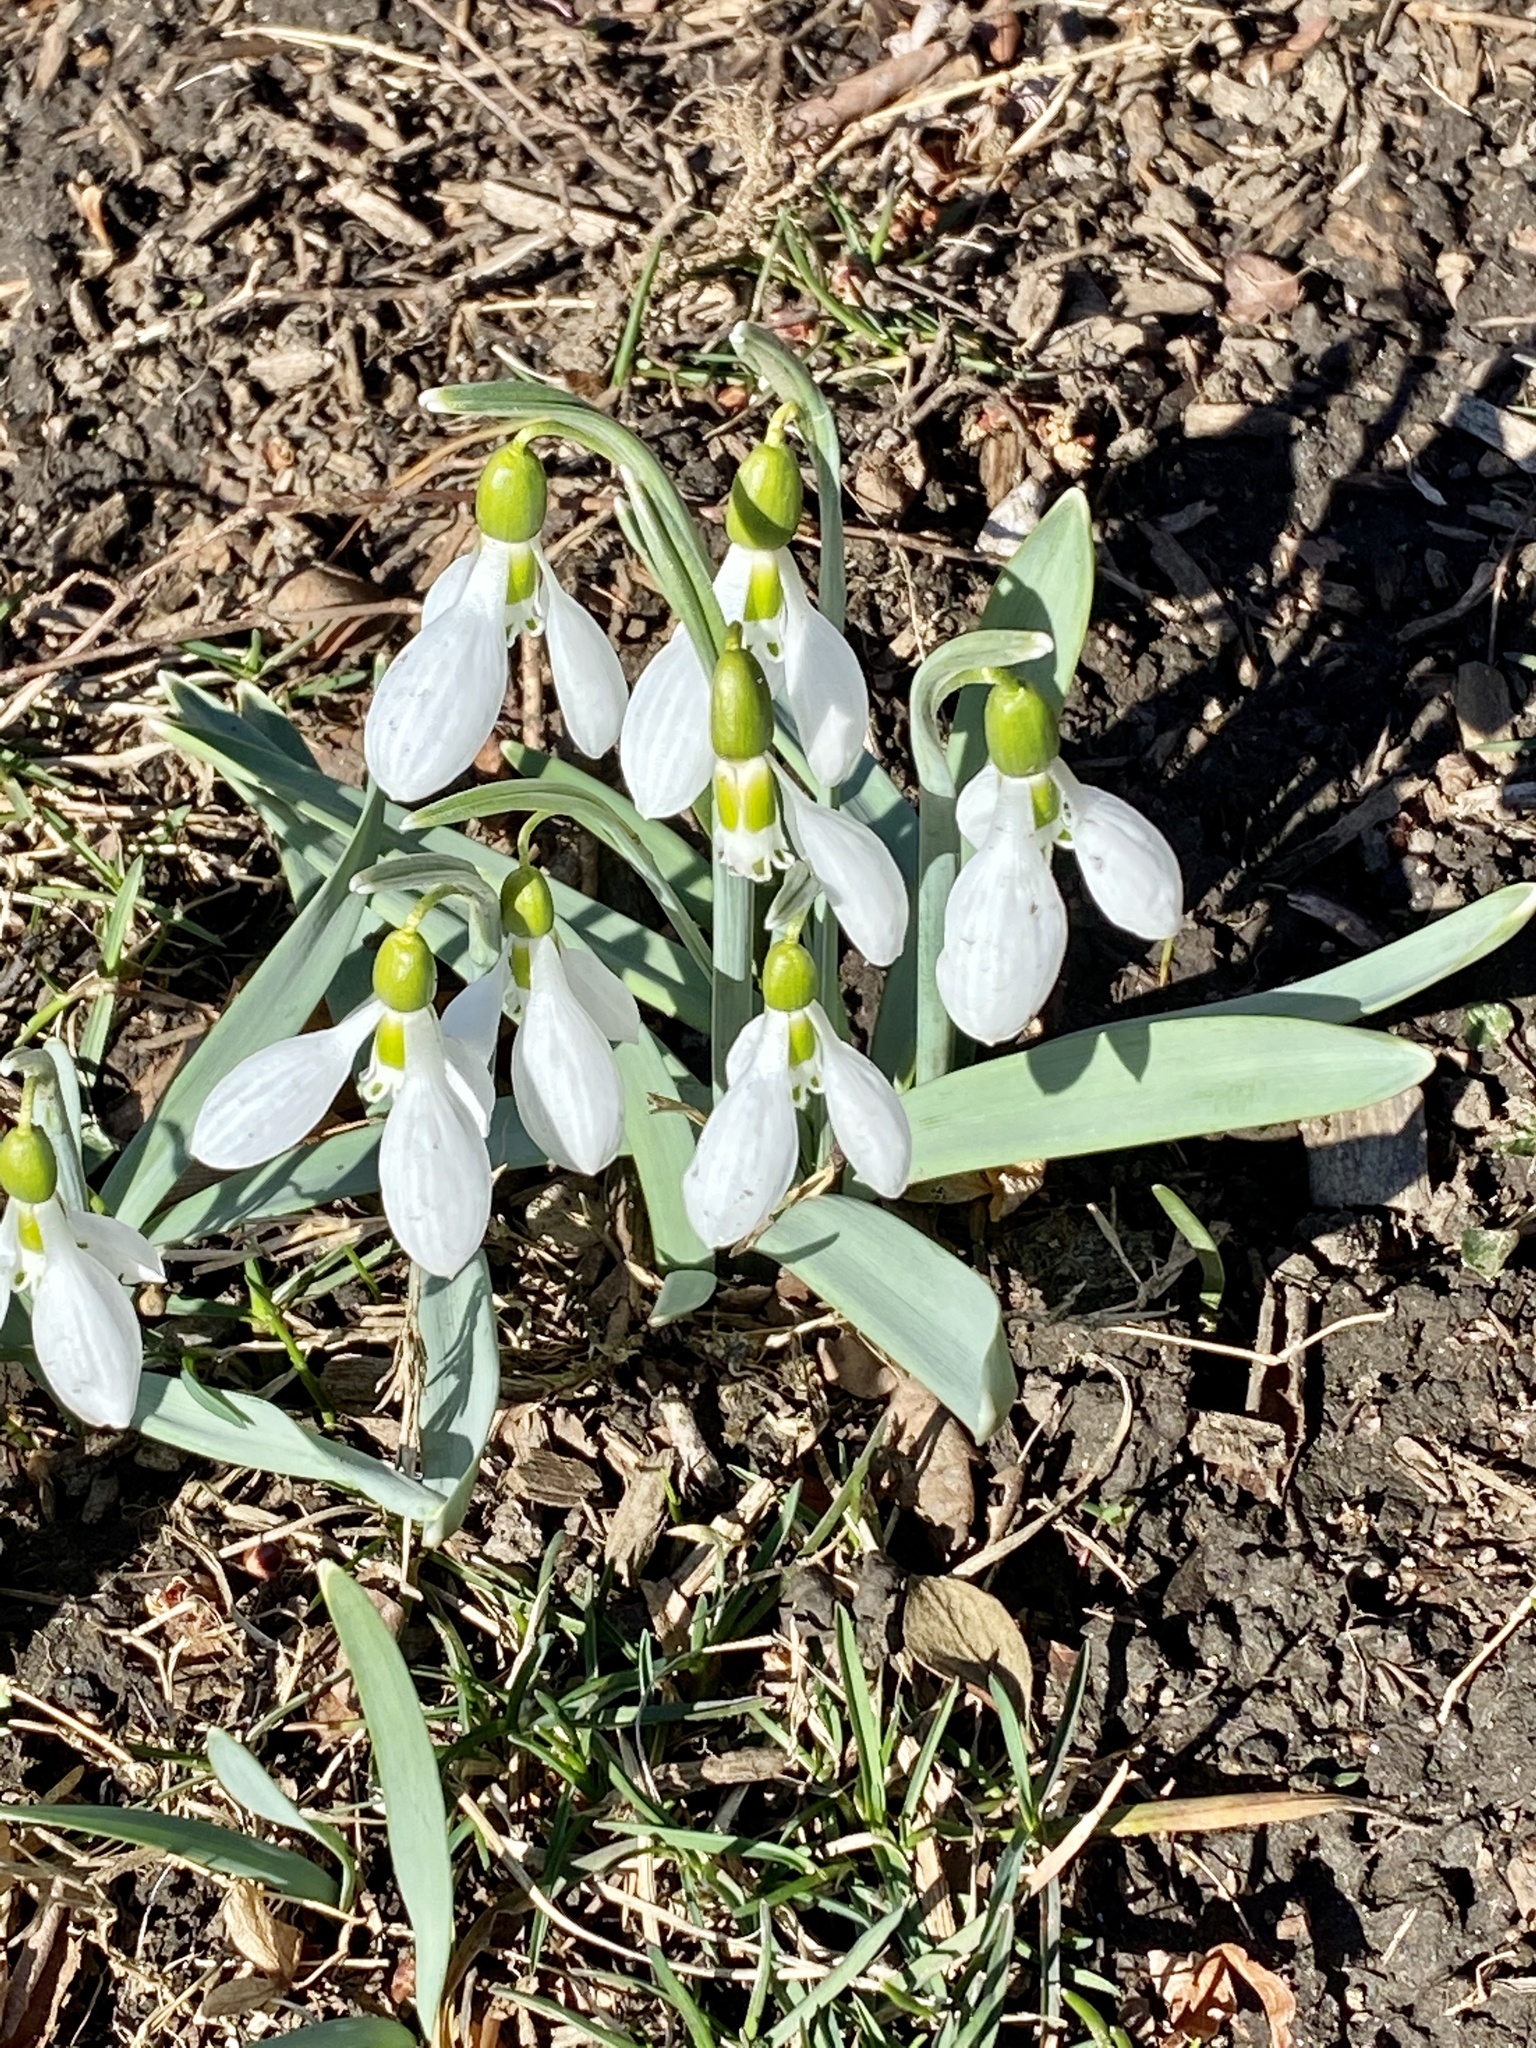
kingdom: Plantae
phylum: Tracheophyta
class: Liliopsida
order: Asparagales
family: Amaryllidaceae
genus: Galanthus
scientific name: Galanthus elwesii
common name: Greater snowdrop
